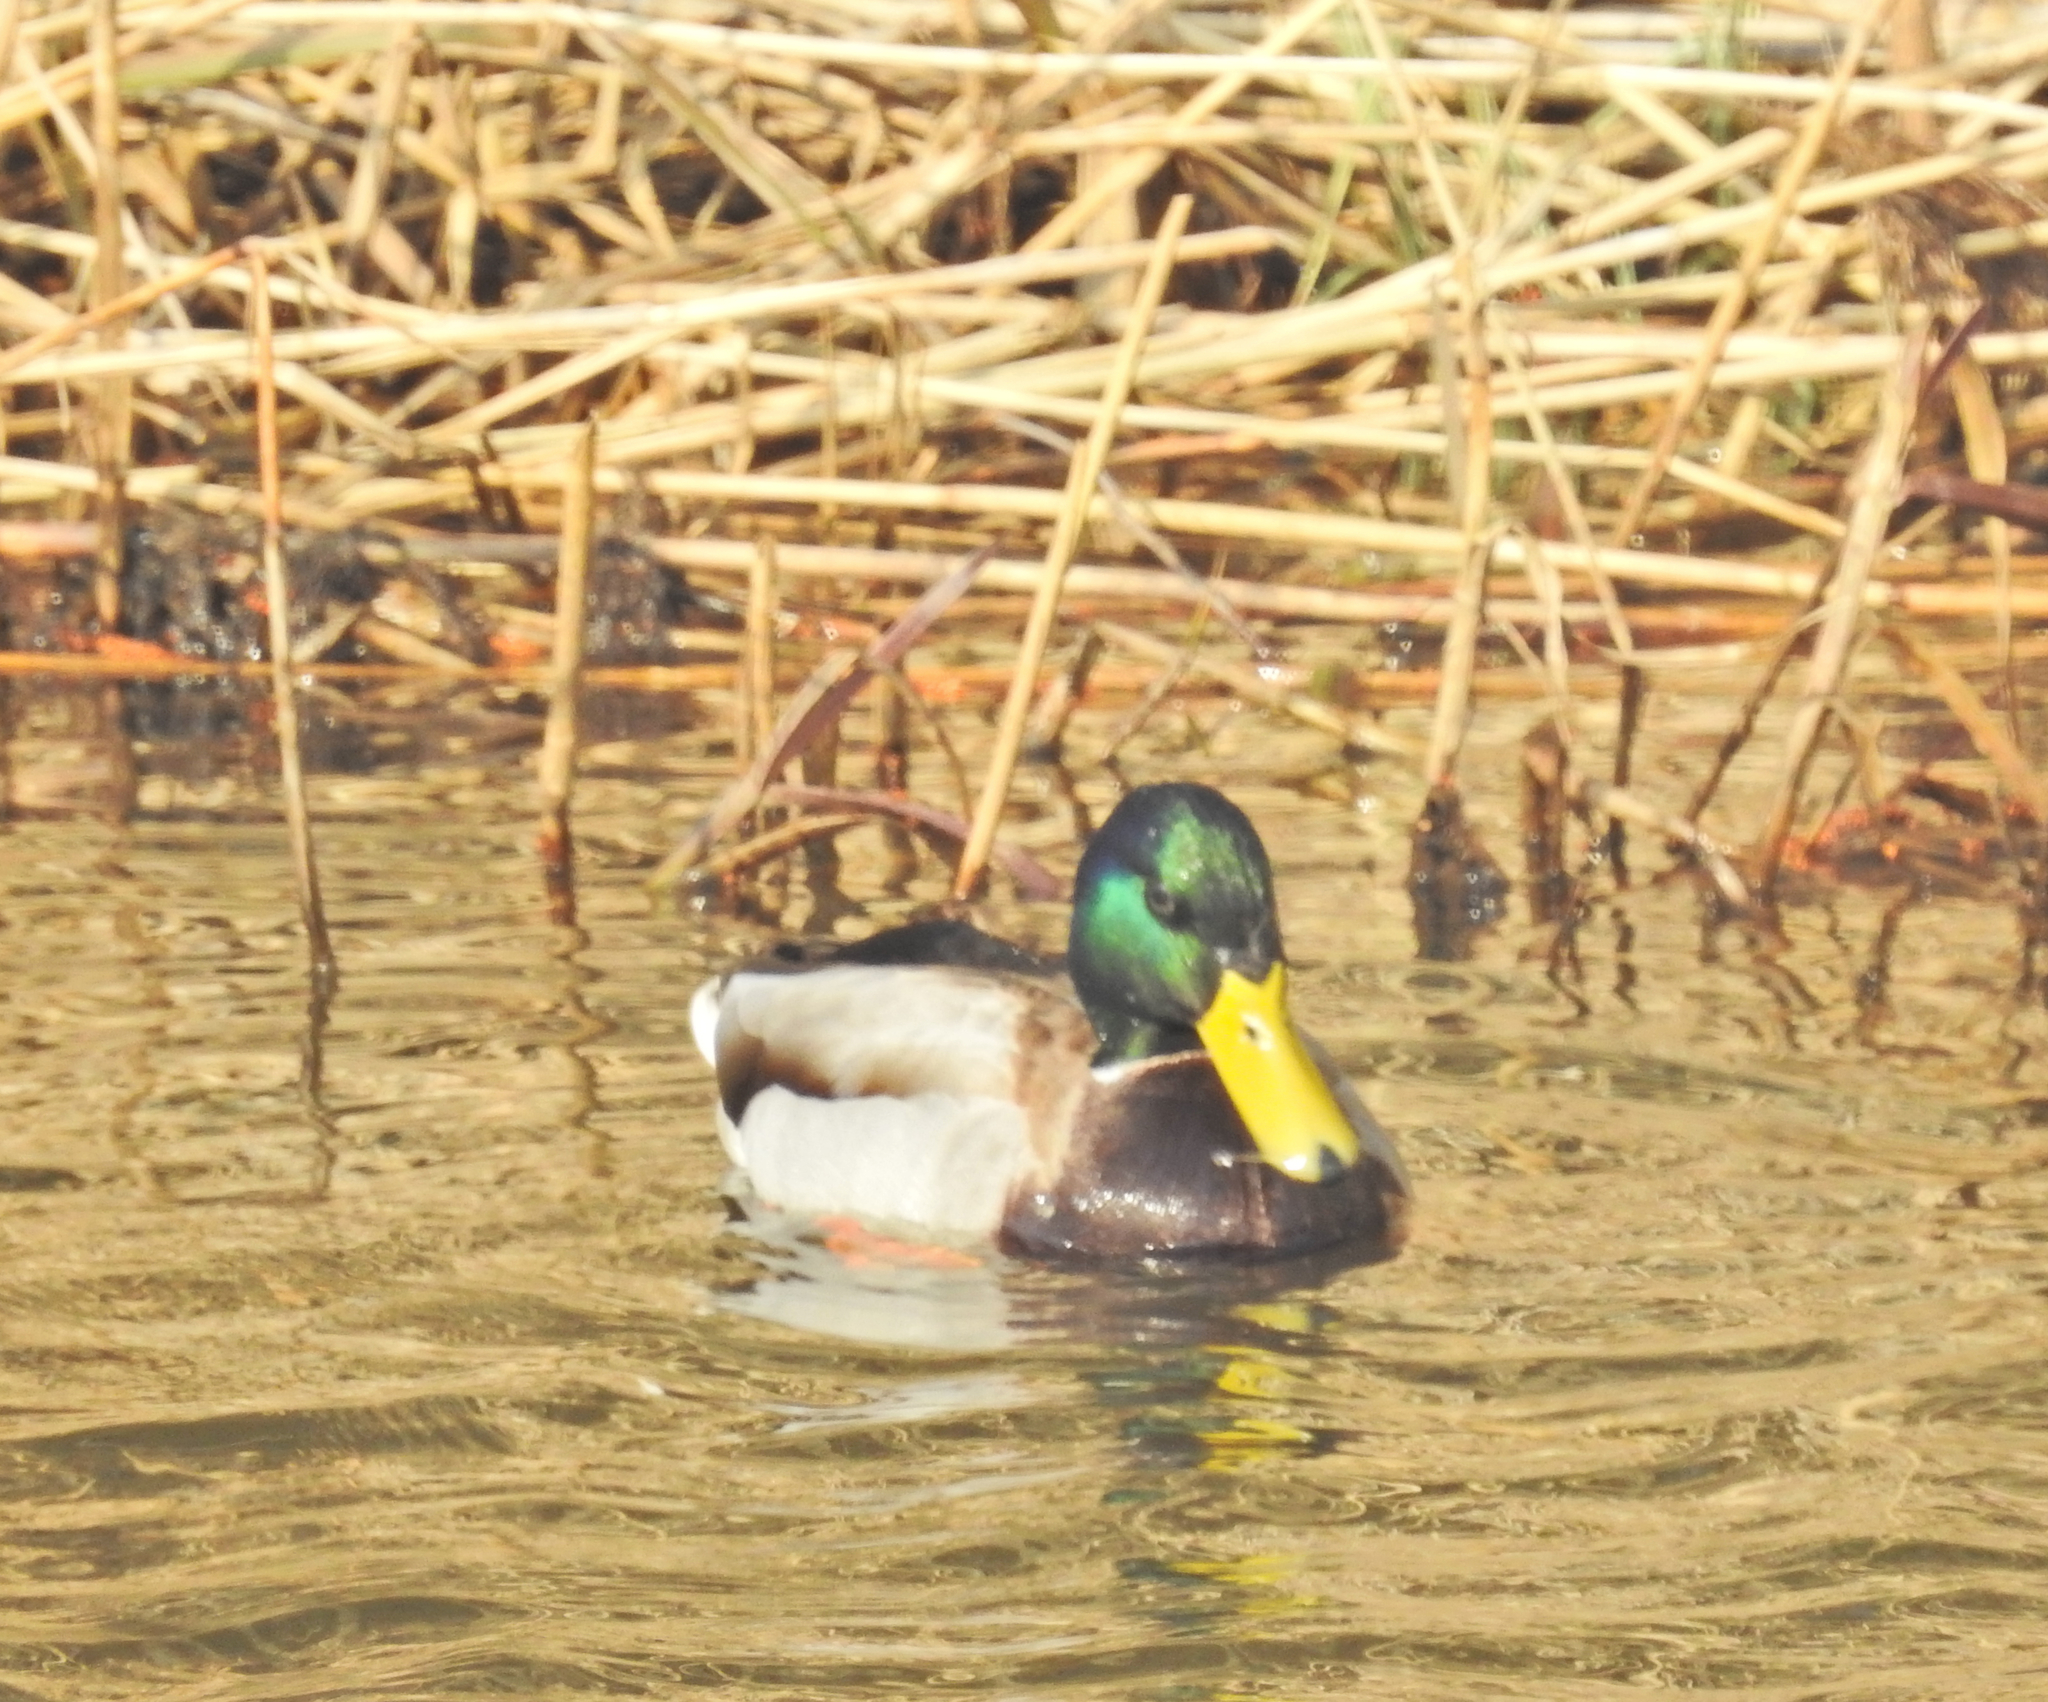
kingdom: Animalia
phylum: Chordata
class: Aves
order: Anseriformes
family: Anatidae
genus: Anas
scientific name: Anas platyrhynchos
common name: Mallard
